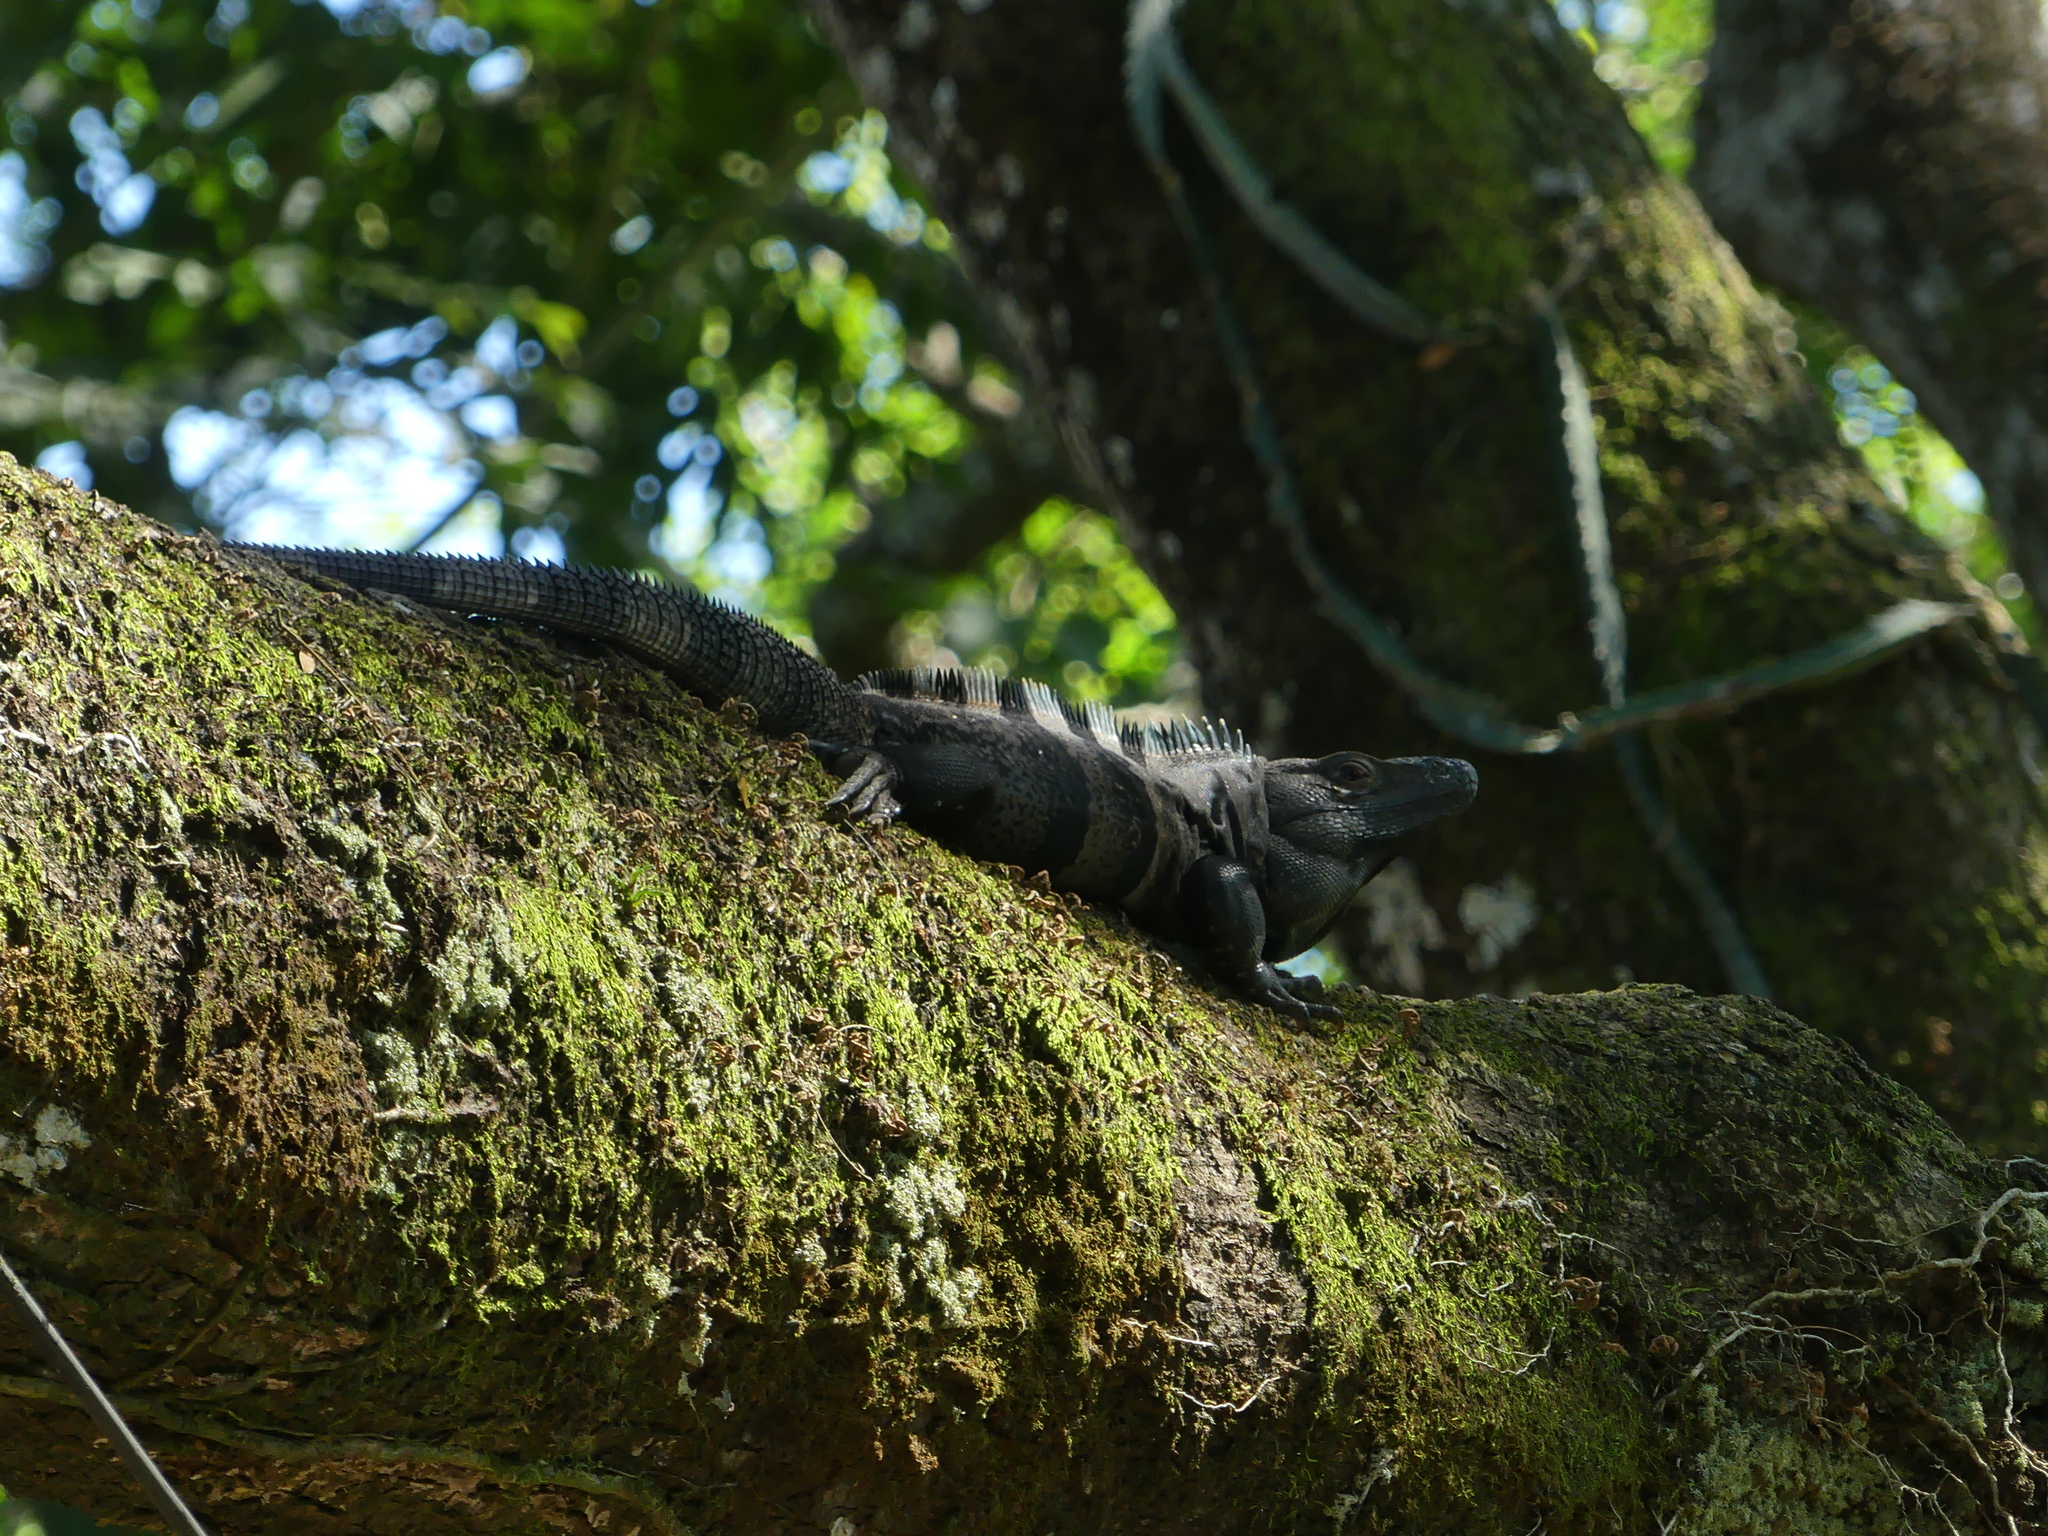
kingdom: Animalia
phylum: Chordata
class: Squamata
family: Iguanidae
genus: Ctenosaura
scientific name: Ctenosaura similis
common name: Black spiny-tailed iguana
